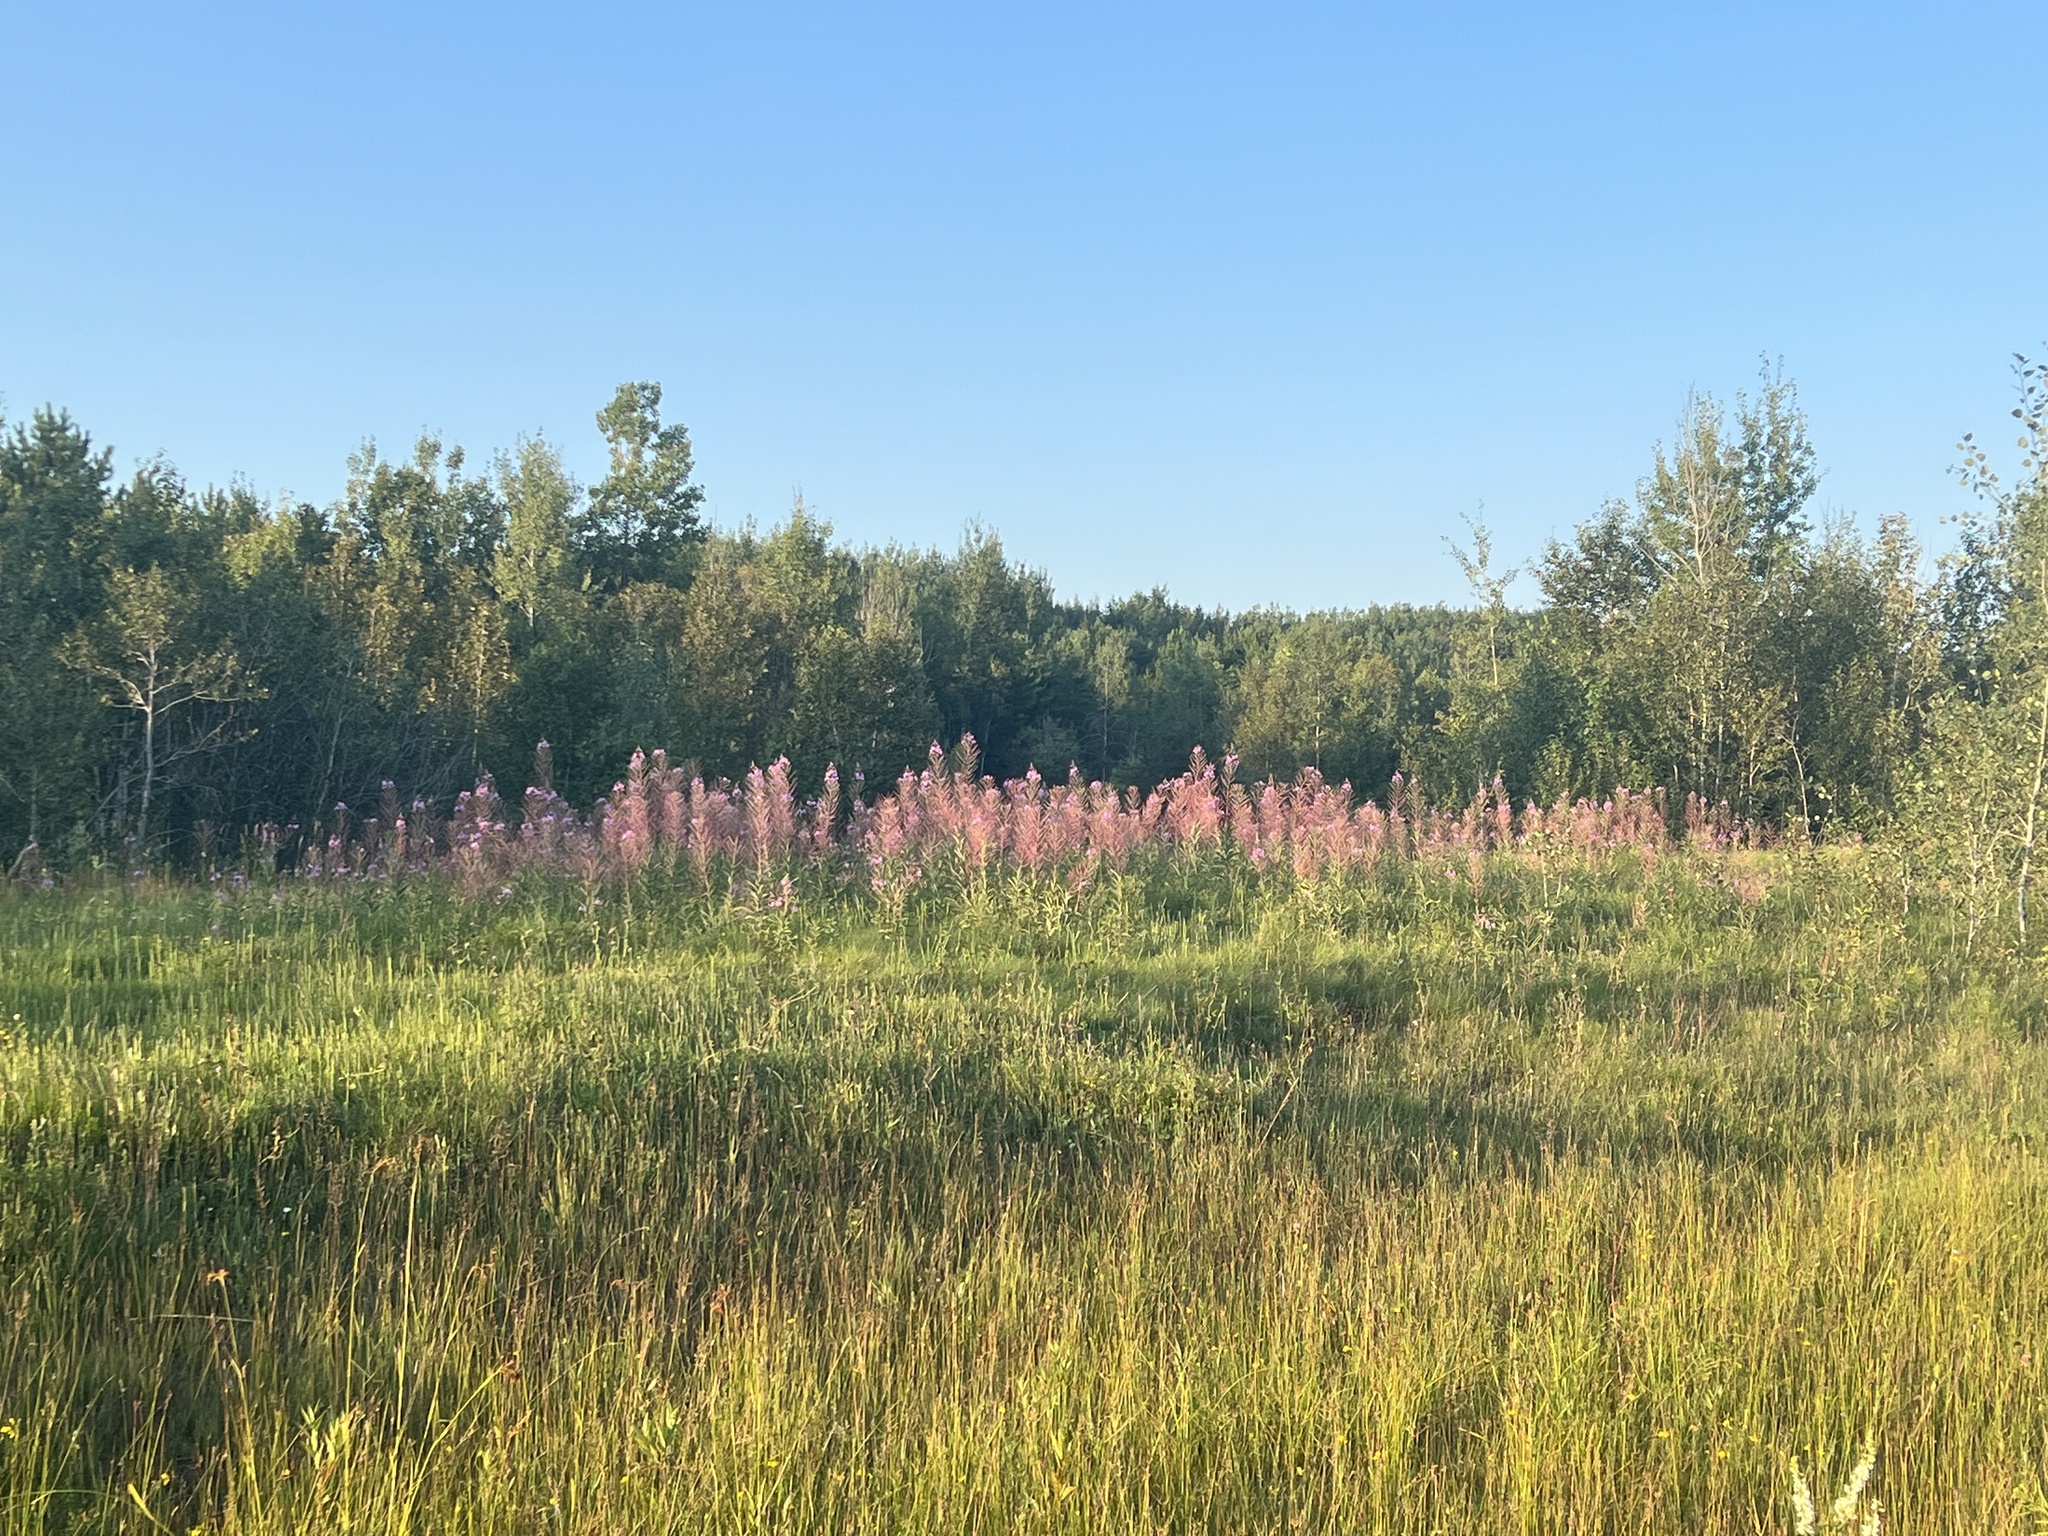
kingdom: Plantae
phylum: Tracheophyta
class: Magnoliopsida
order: Myrtales
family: Onagraceae
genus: Chamaenerion
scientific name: Chamaenerion angustifolium
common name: Fireweed
